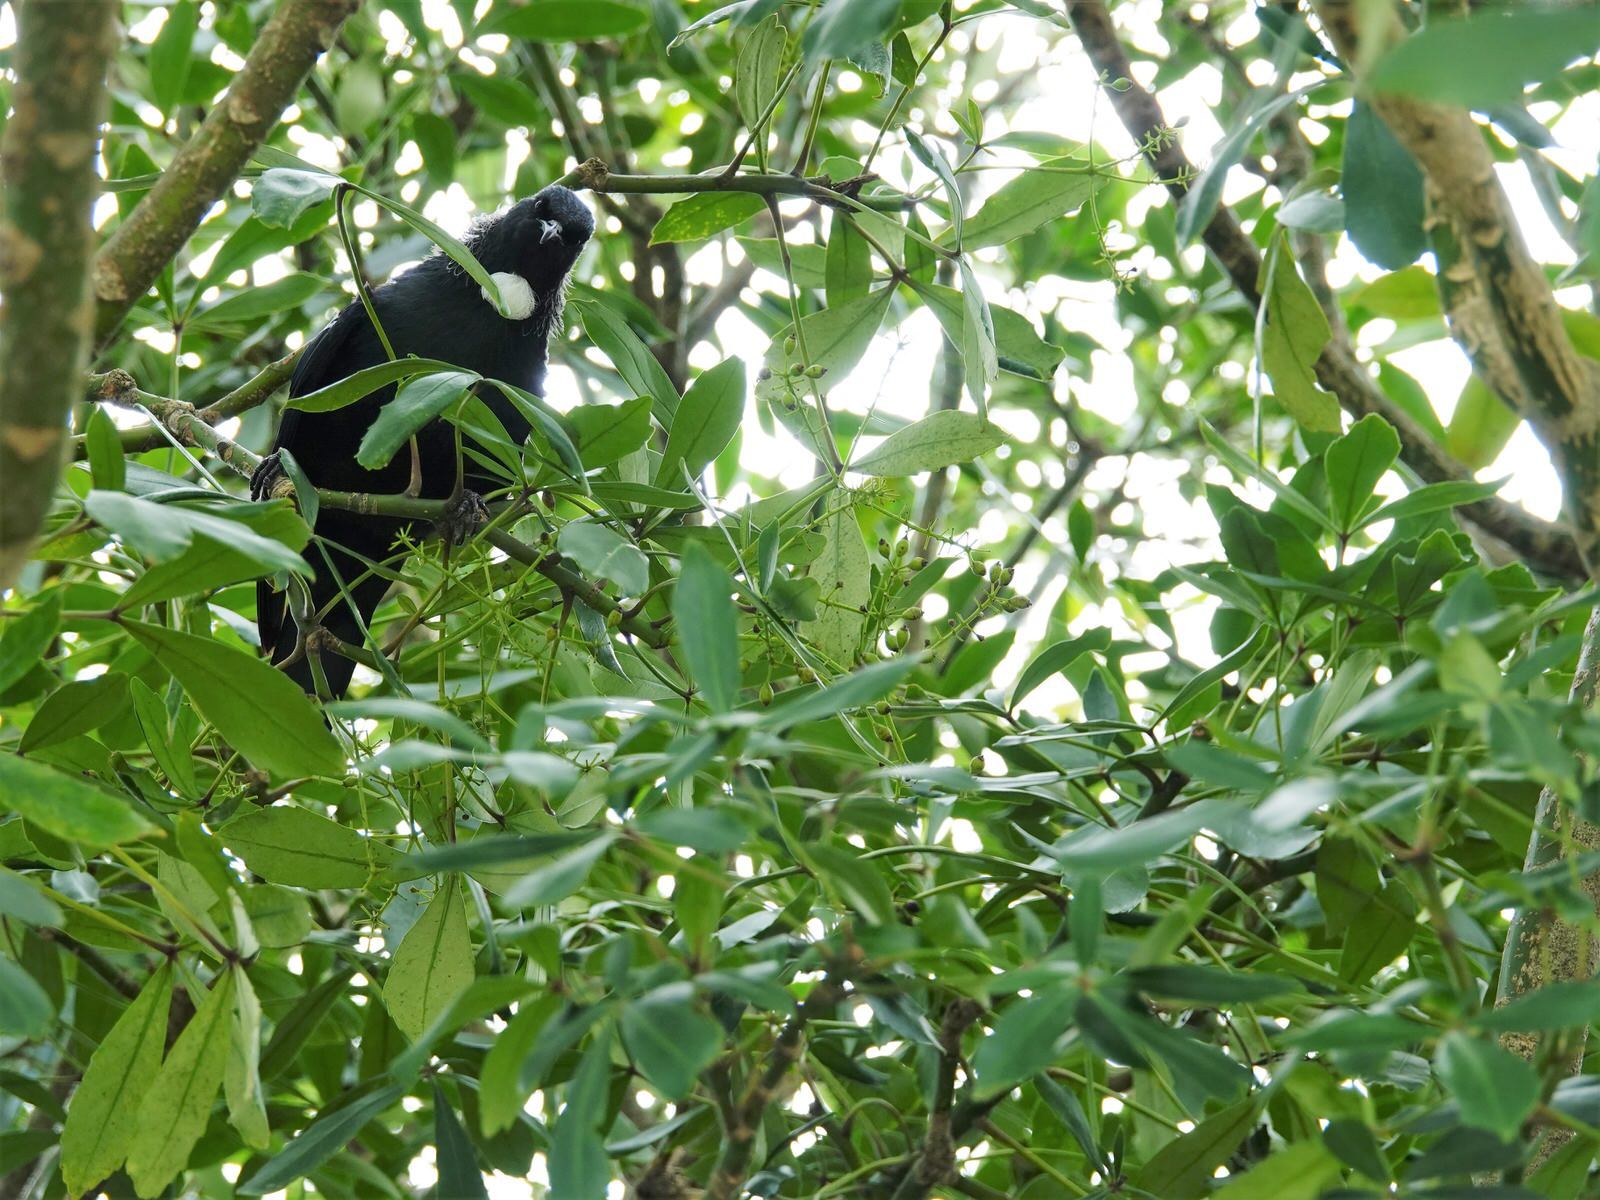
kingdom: Animalia
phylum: Chordata
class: Aves
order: Passeriformes
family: Meliphagidae
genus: Prosthemadera
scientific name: Prosthemadera novaeseelandiae
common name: Tui
